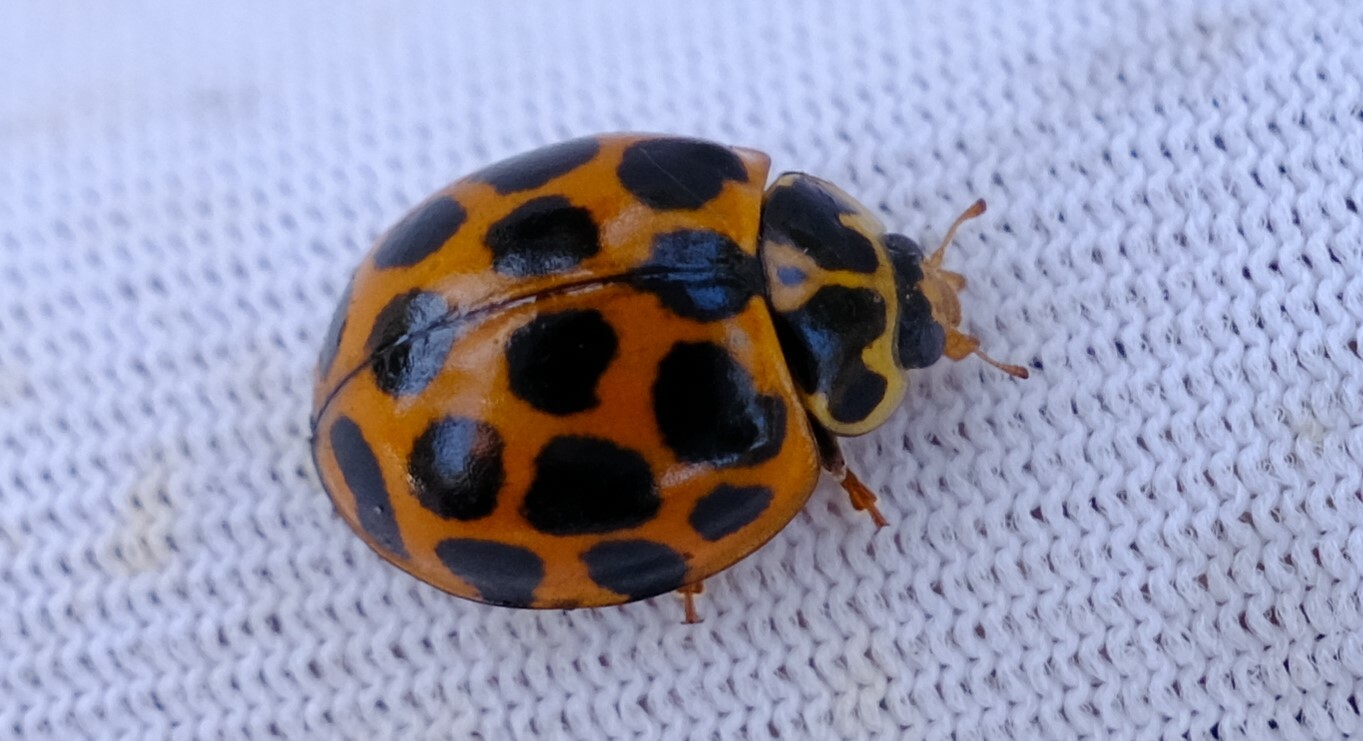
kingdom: Animalia
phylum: Arthropoda
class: Insecta
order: Coleoptera
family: Coccinellidae
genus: Harmonia
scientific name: Harmonia conformis
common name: Common spotted ladybird beetle
